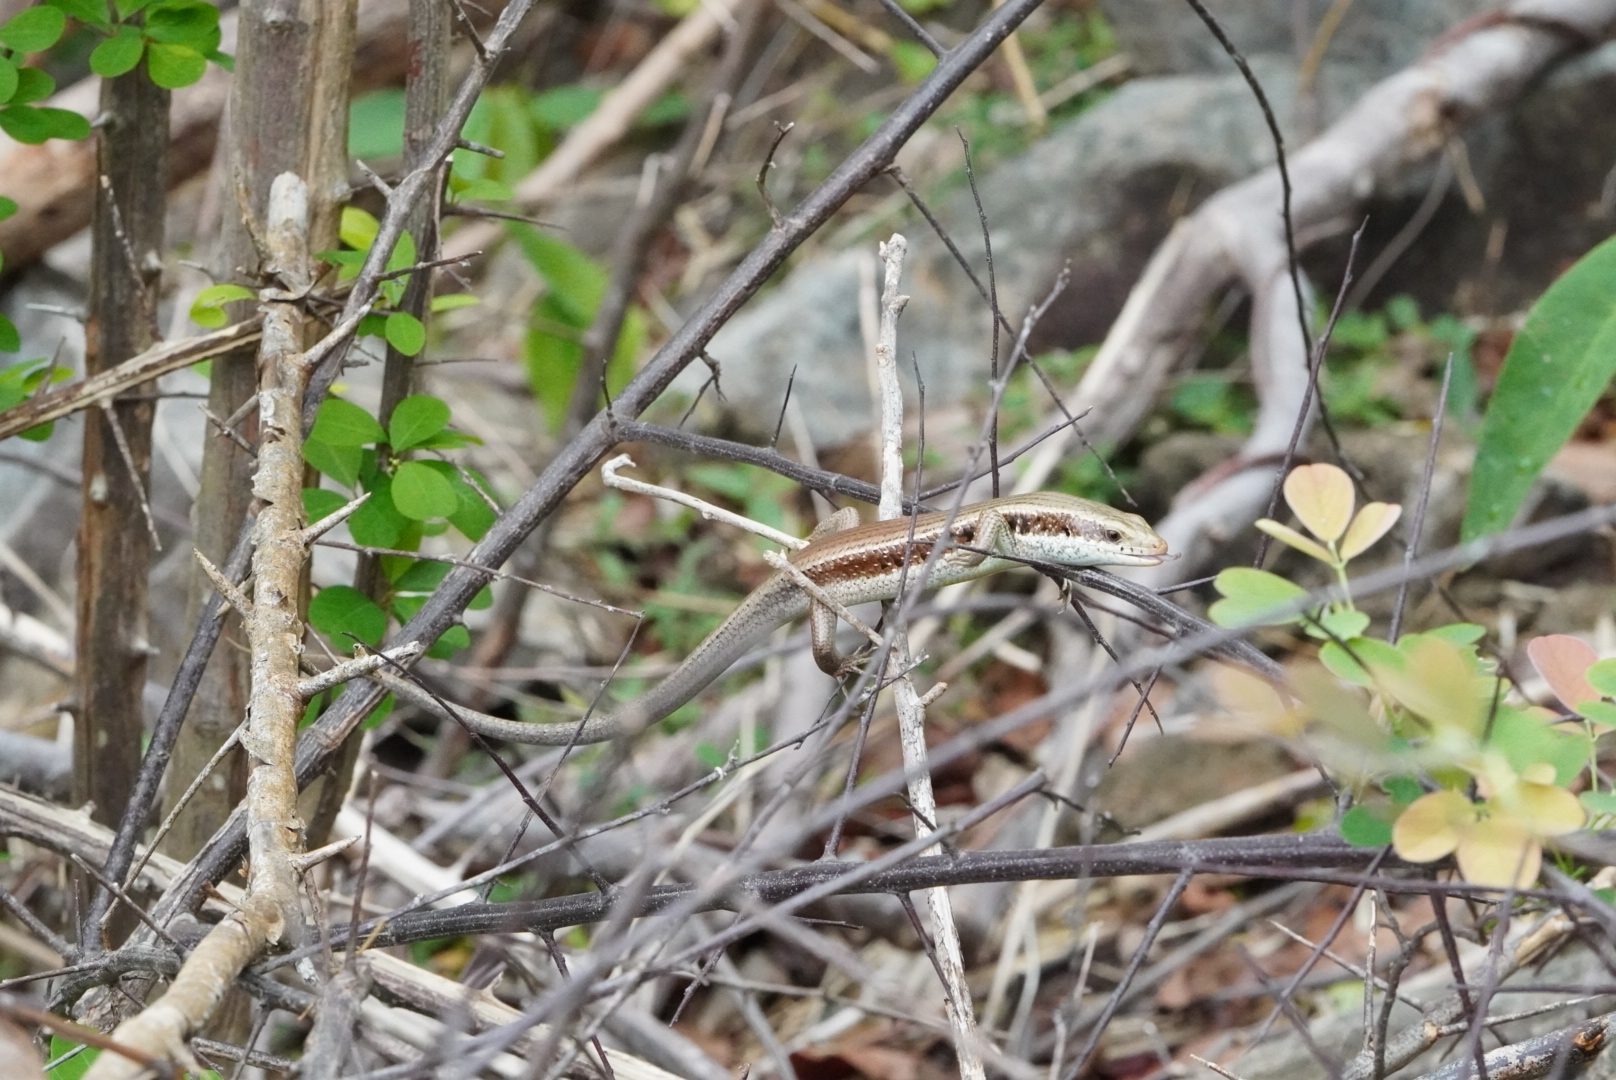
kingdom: Animalia
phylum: Chordata
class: Squamata
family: Scincidae
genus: Eutropis
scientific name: Eutropis longicaudata
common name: Long-tailed sun skink
